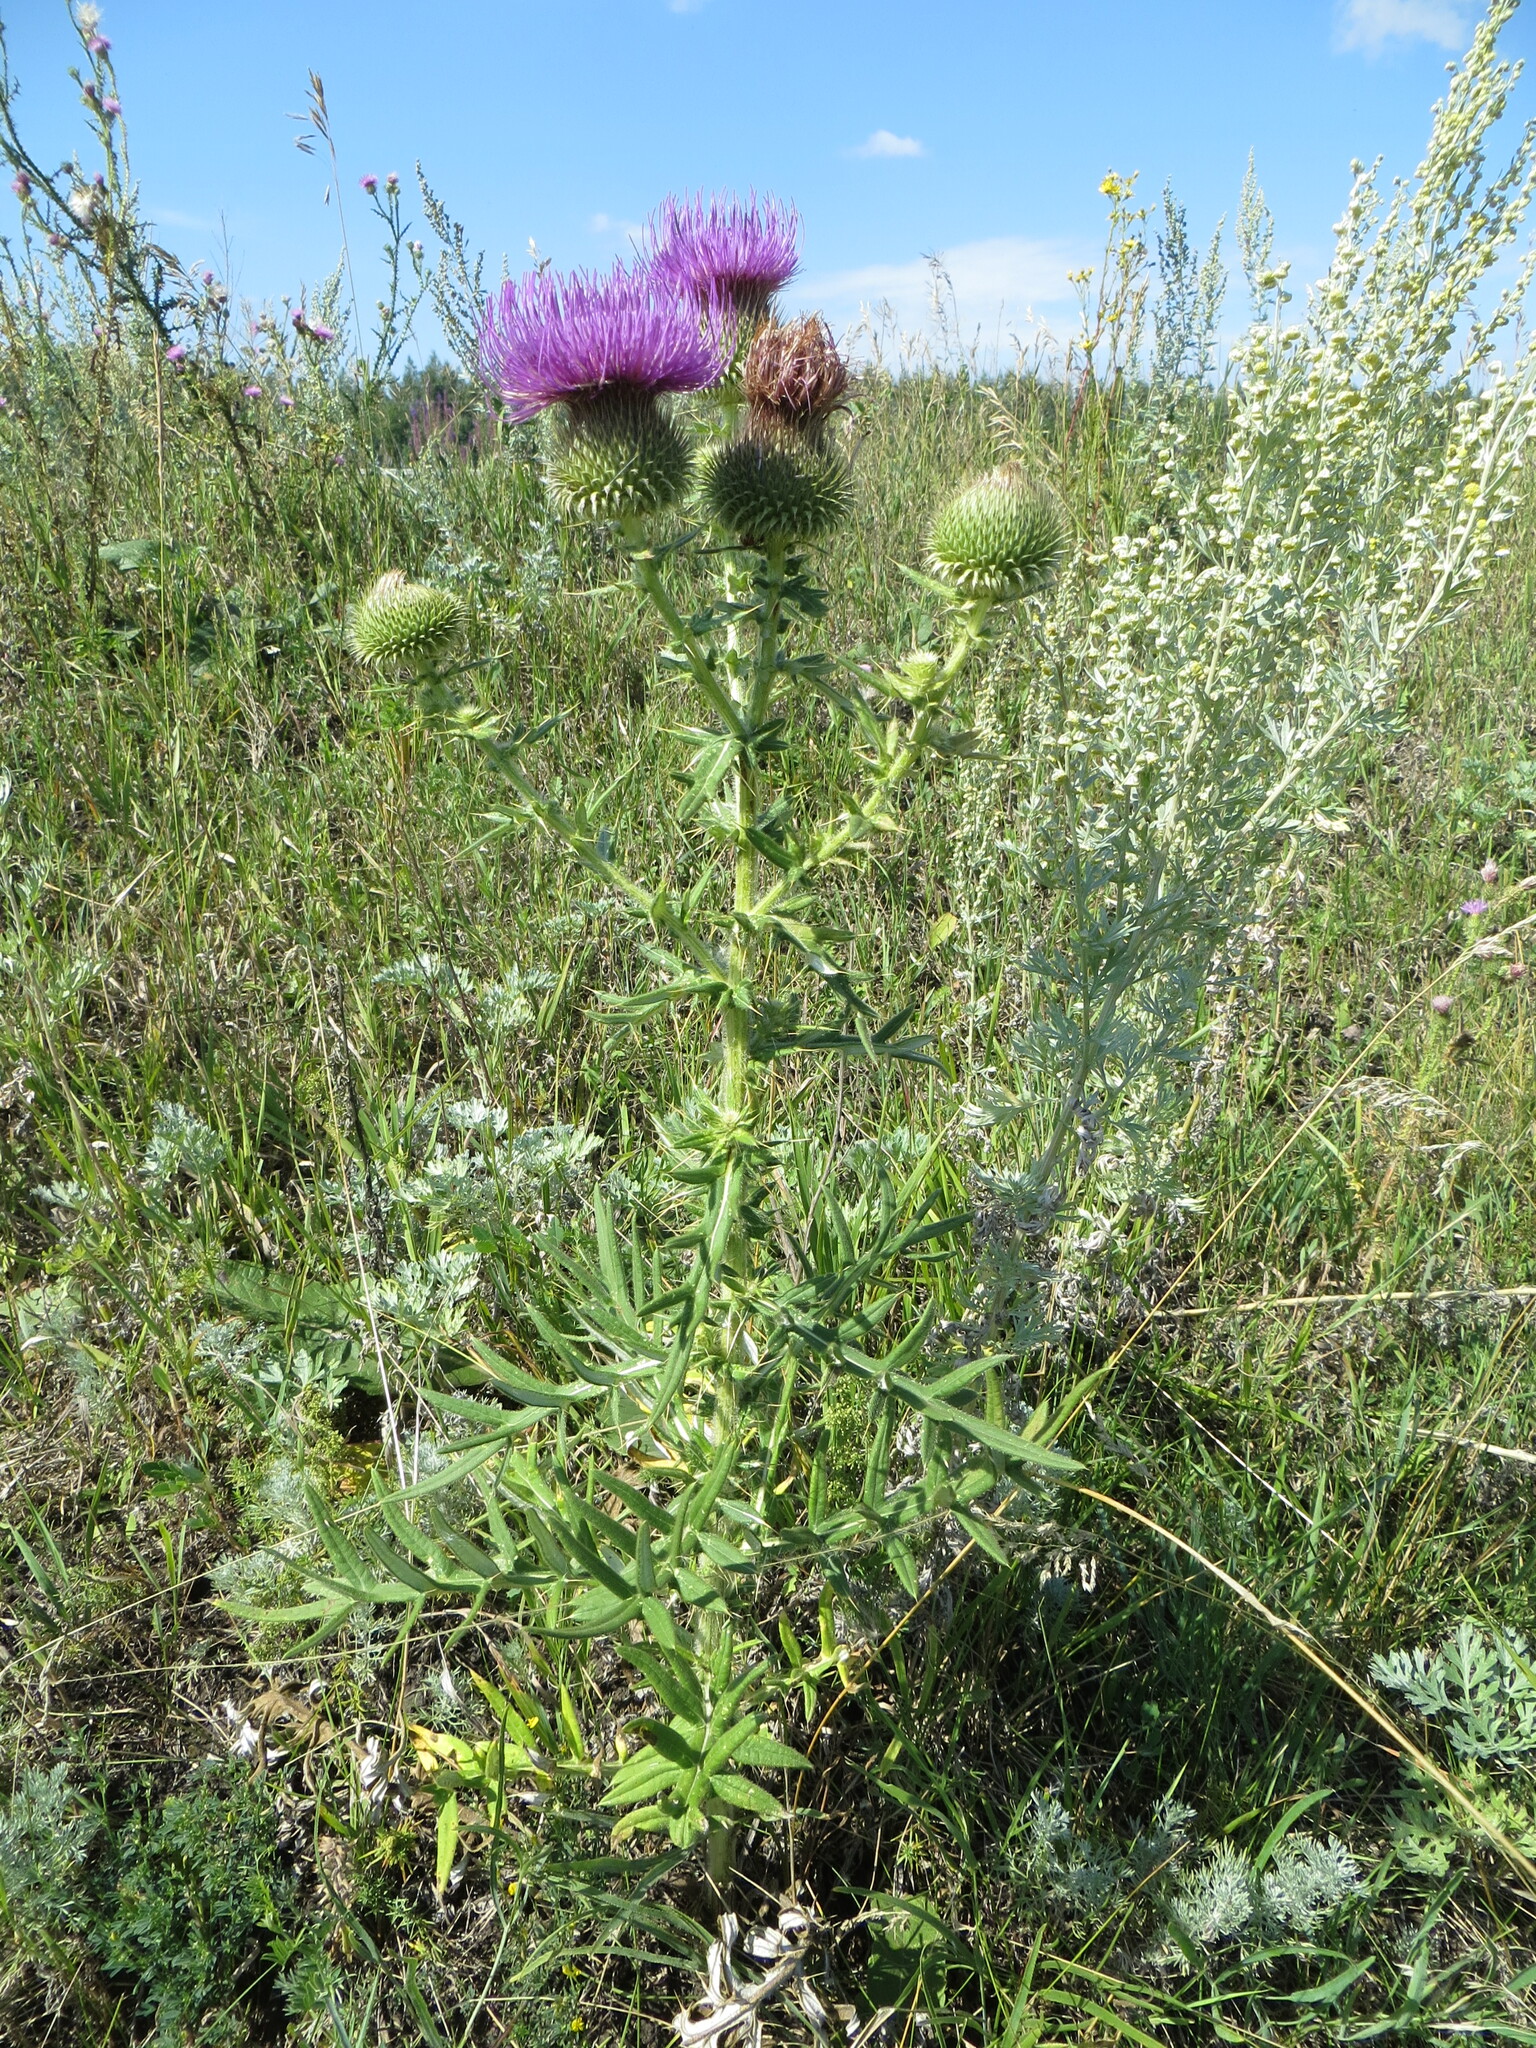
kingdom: Plantae
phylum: Tracheophyta
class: Magnoliopsida
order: Asterales
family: Asteraceae
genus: Cirsium
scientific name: Cirsium serrulatum
